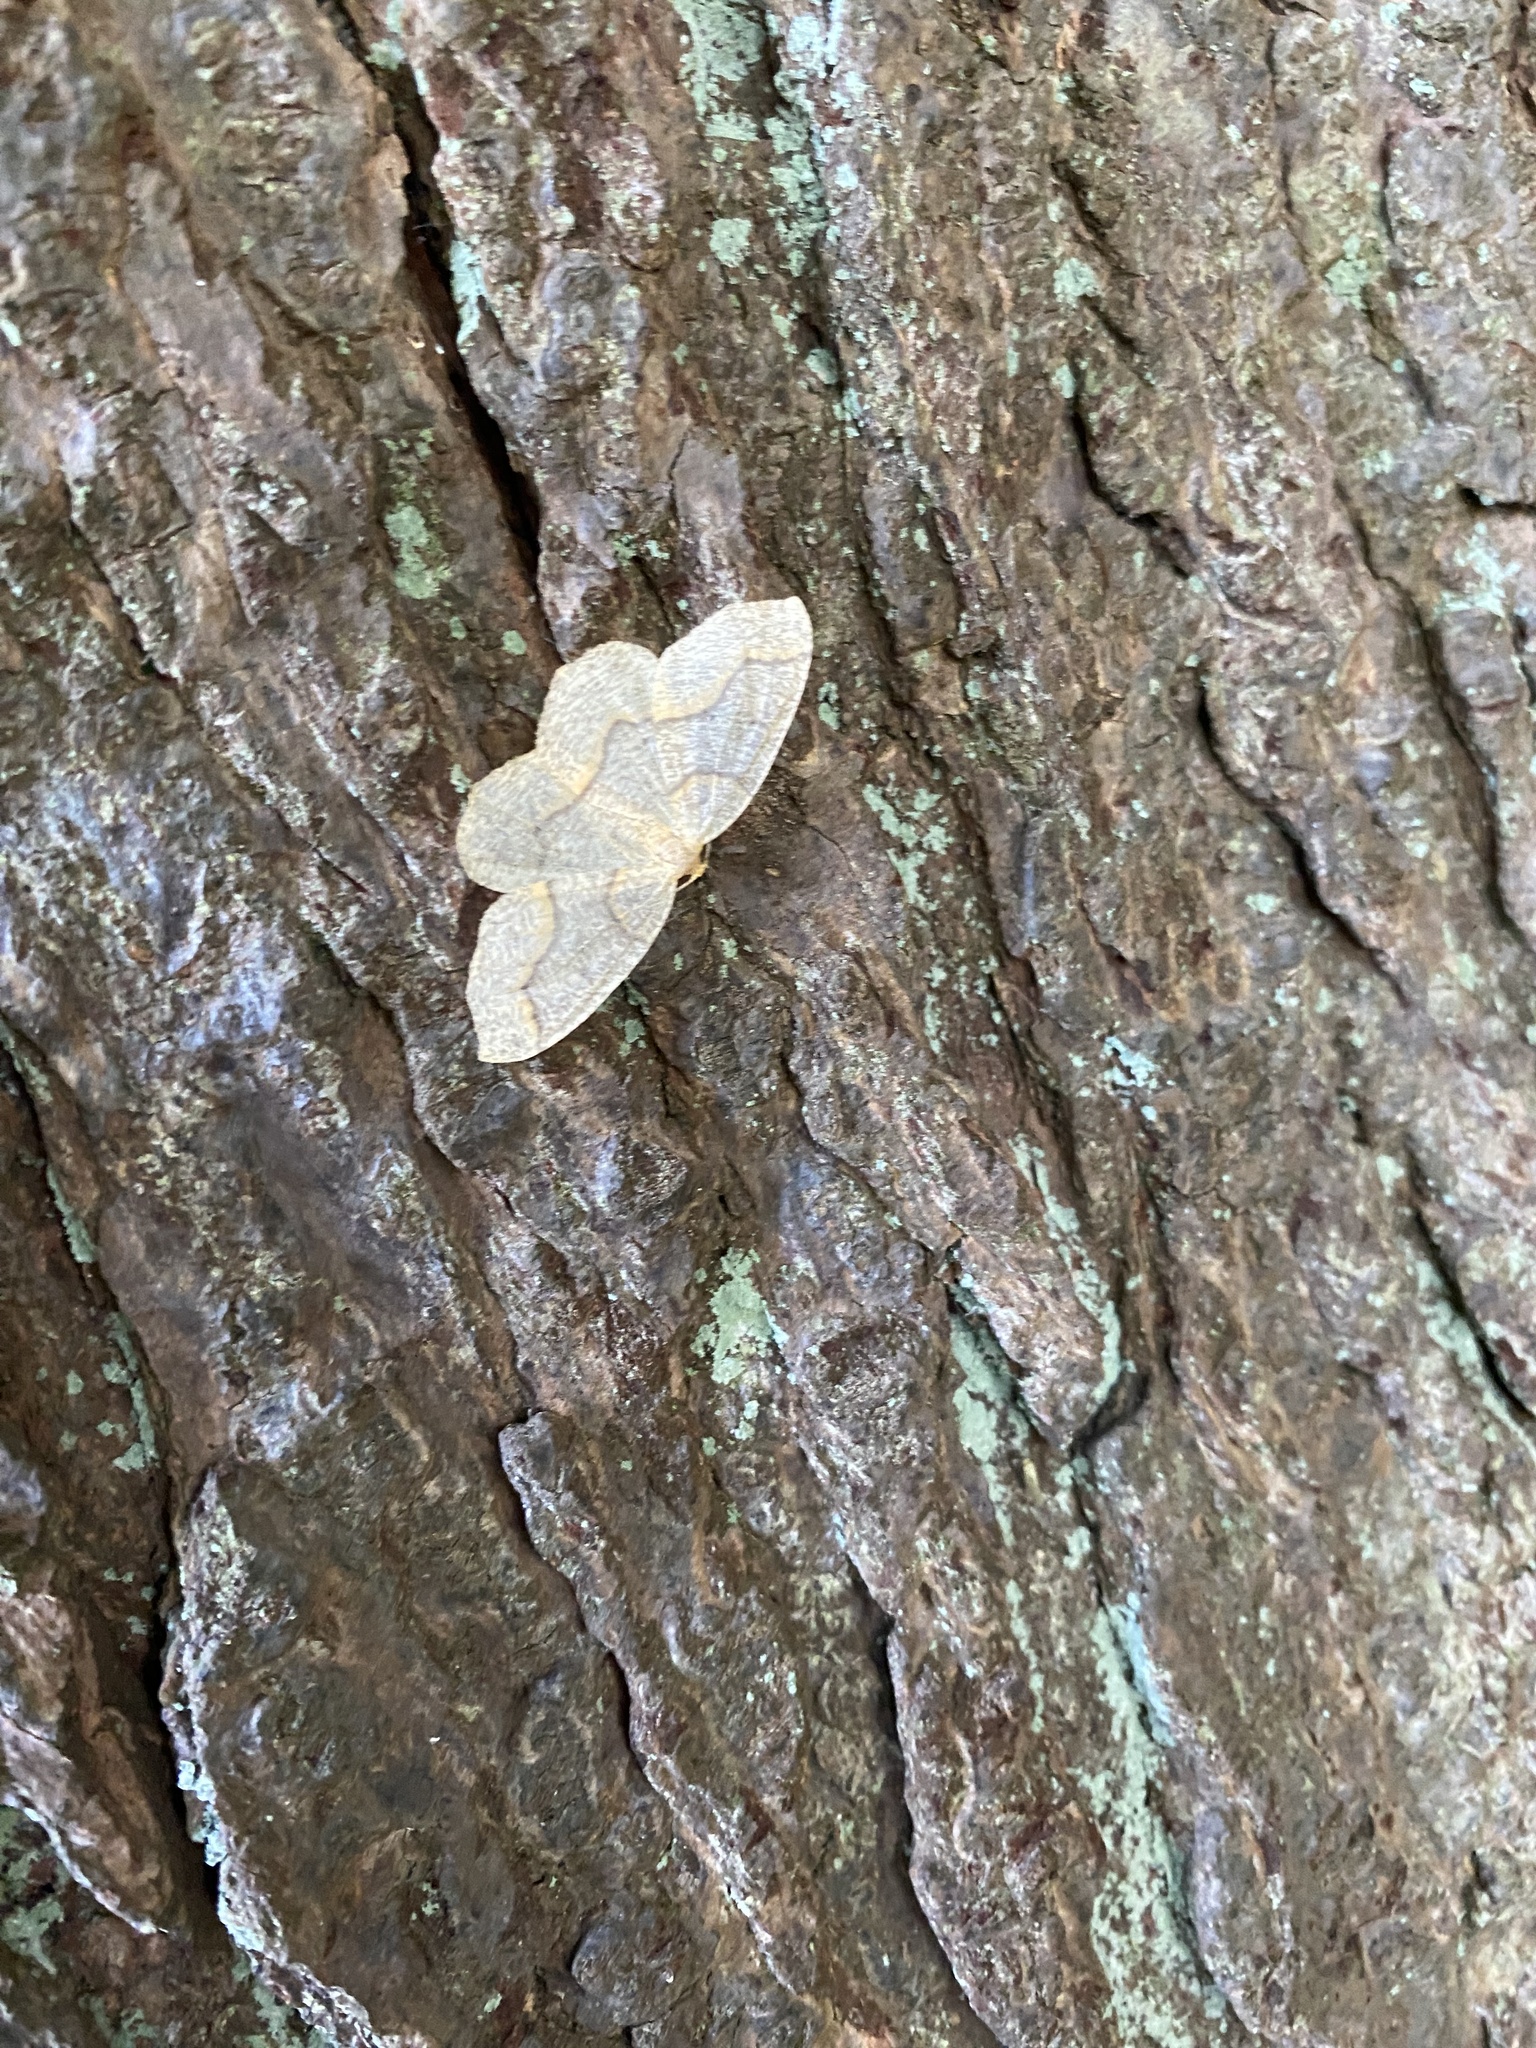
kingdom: Animalia
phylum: Arthropoda
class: Insecta
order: Lepidoptera
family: Geometridae
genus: Lambdina
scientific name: Lambdina fiscellaria
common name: Hemlock looper
